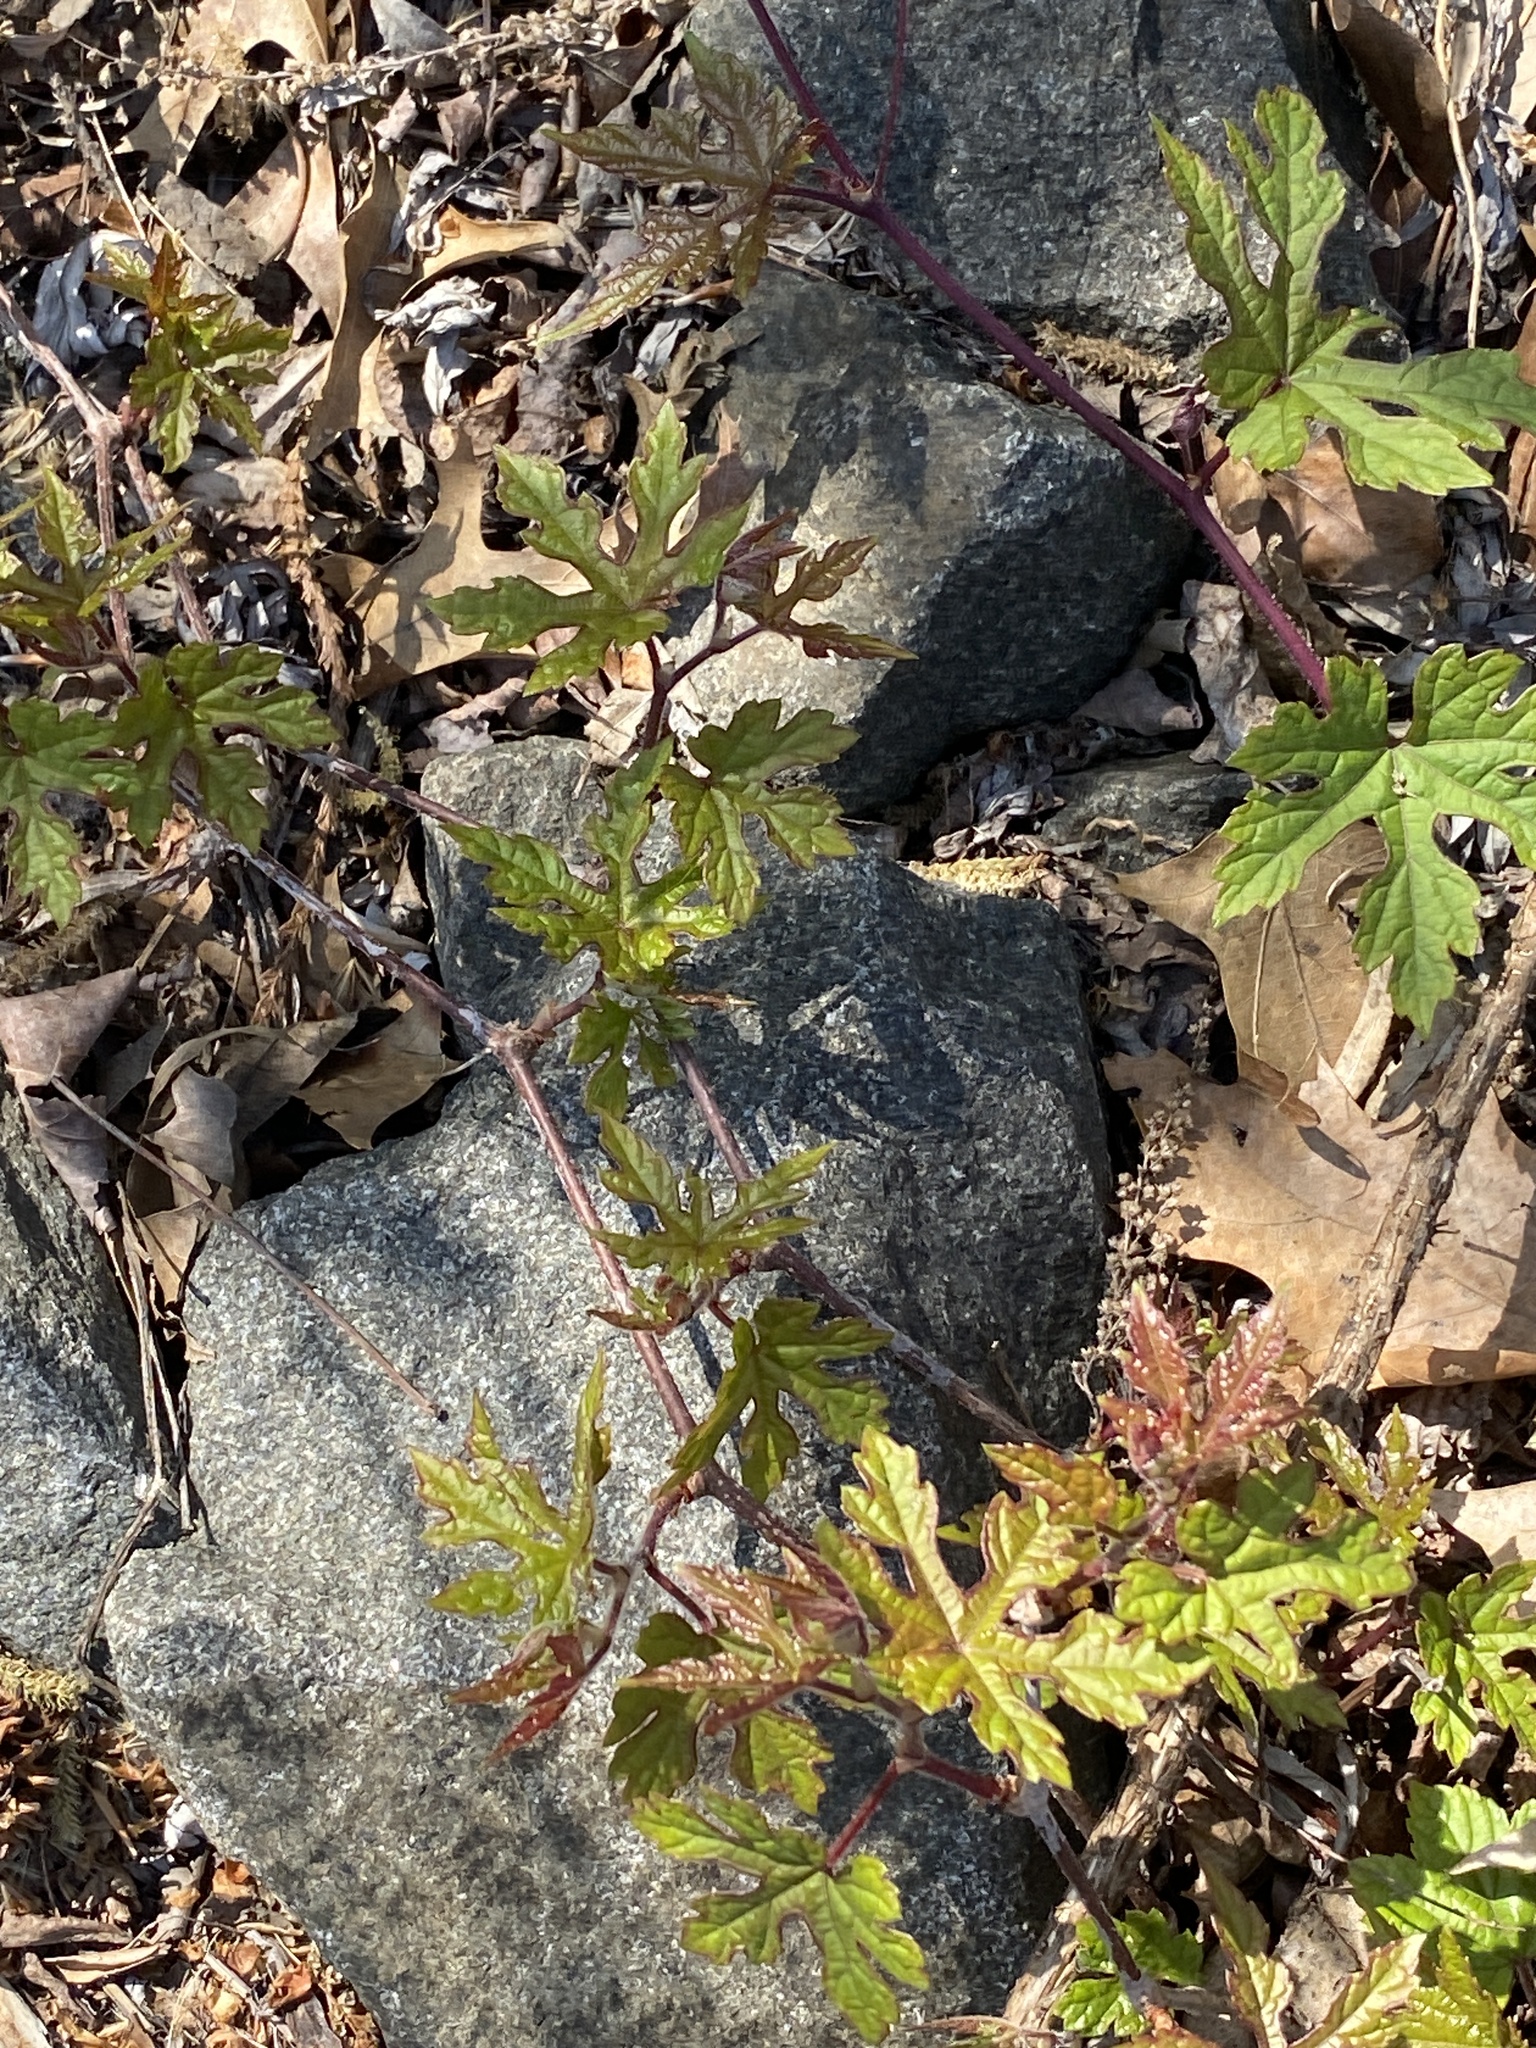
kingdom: Plantae
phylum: Tracheophyta
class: Magnoliopsida
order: Vitales
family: Vitaceae
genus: Ampelopsis
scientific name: Ampelopsis glandulosa
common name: Amur peppervine
